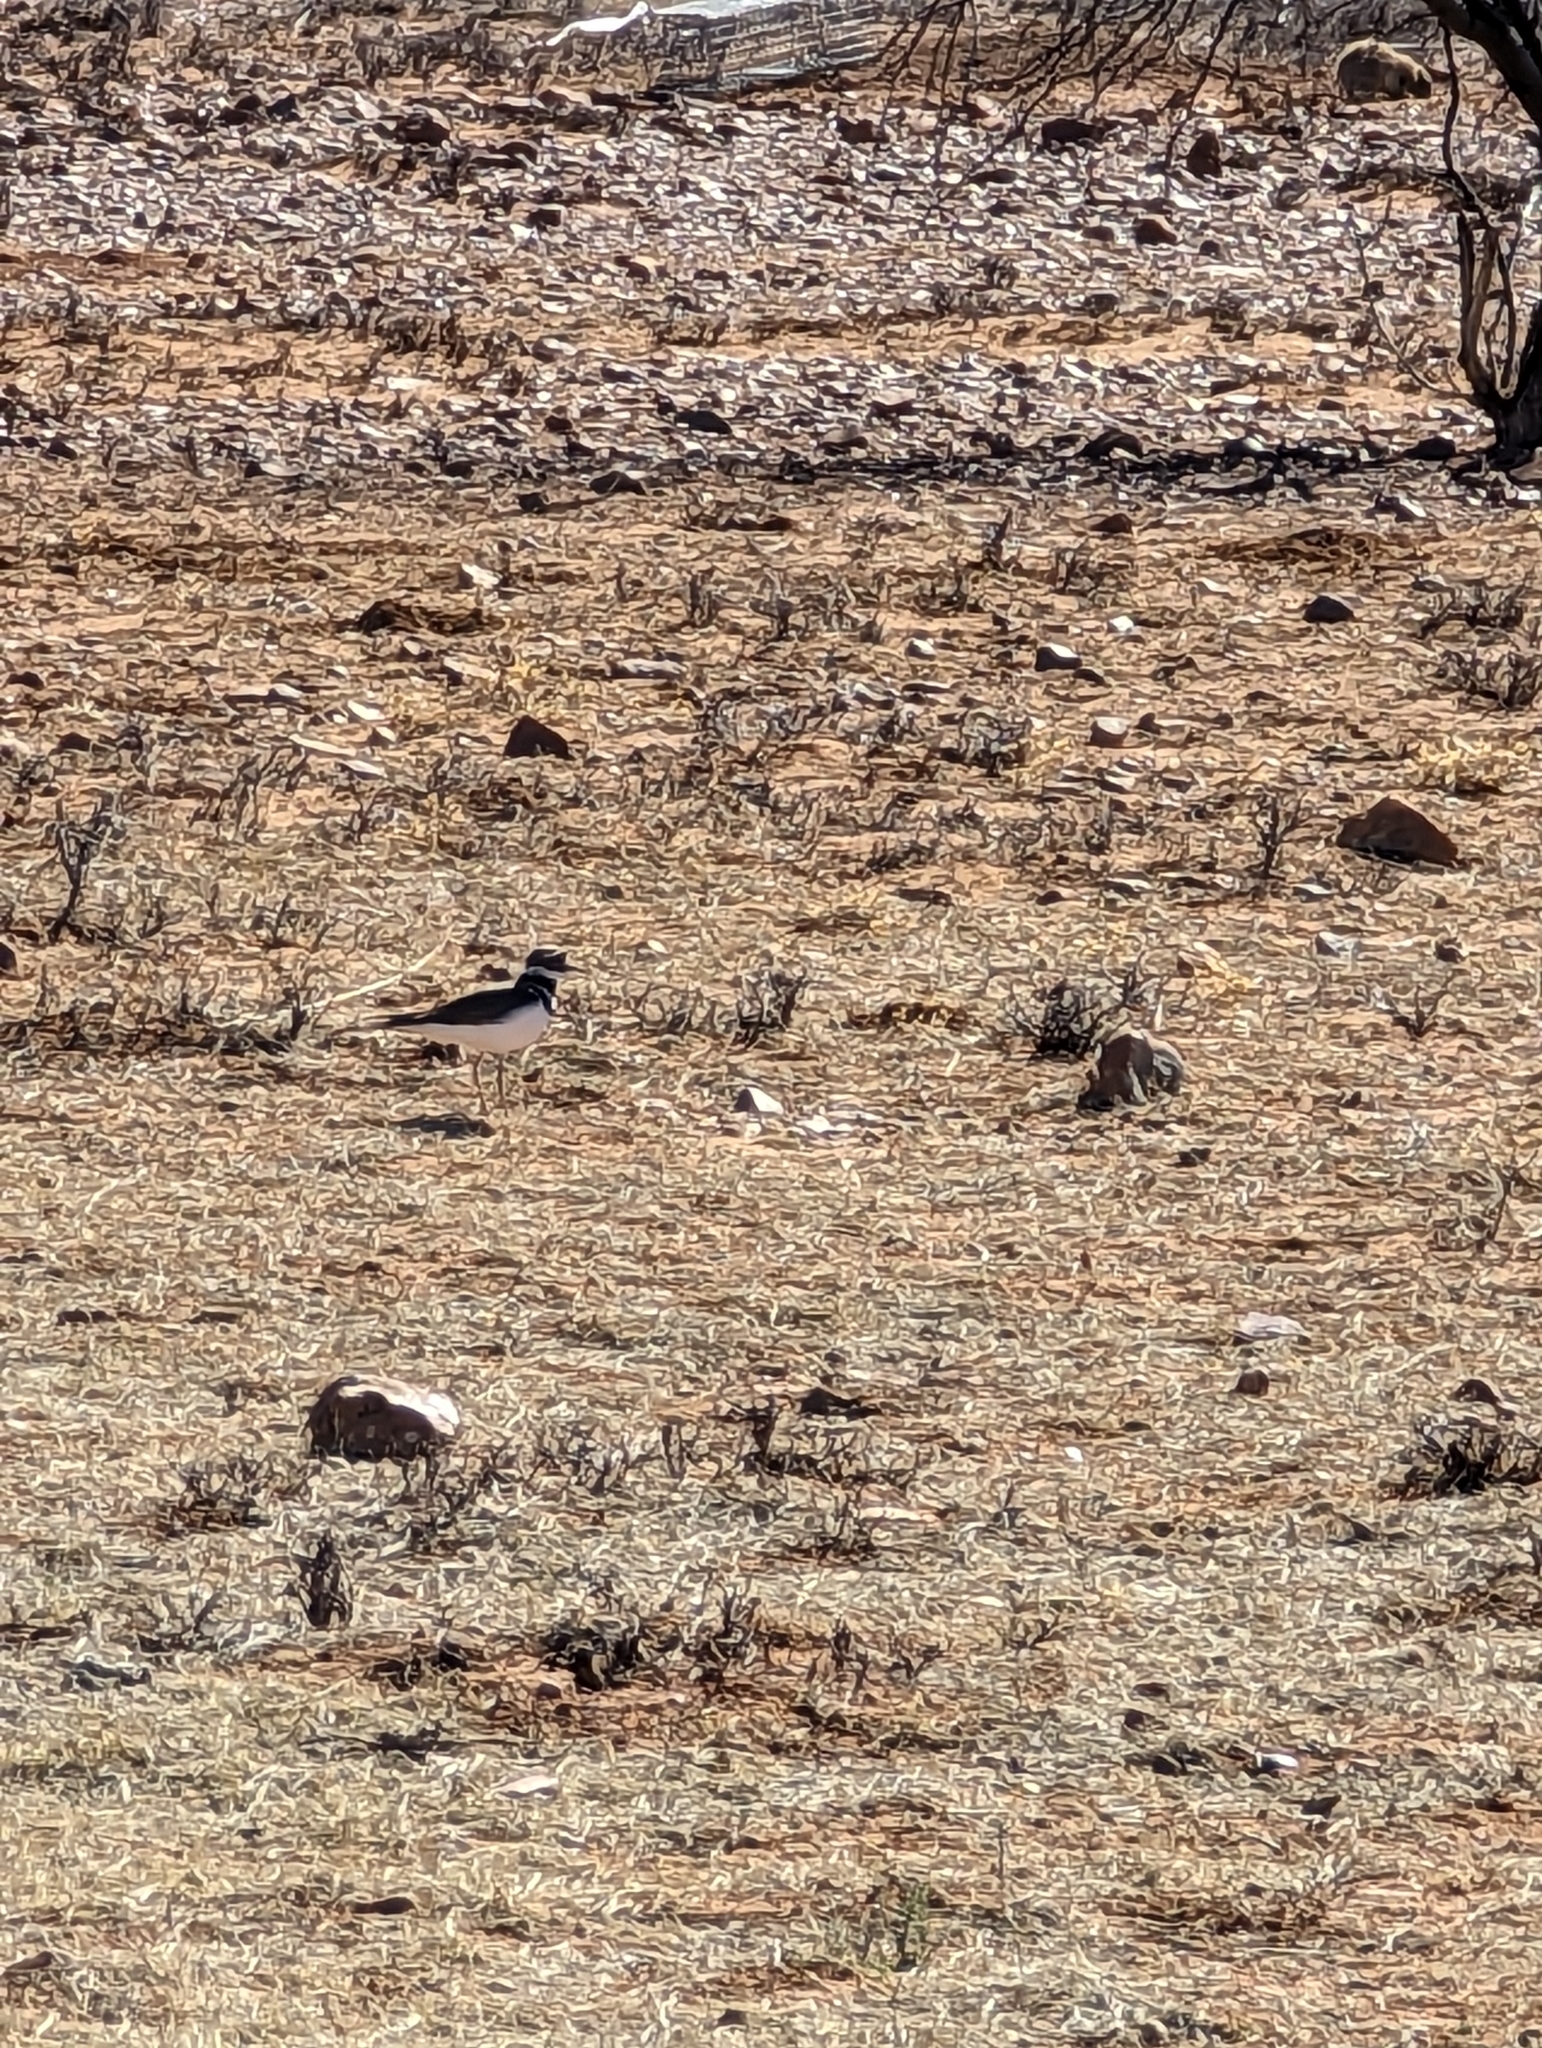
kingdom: Animalia
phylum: Chordata
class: Aves
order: Charadriiformes
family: Charadriidae
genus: Charadrius
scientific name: Charadrius vociferus
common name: Killdeer
